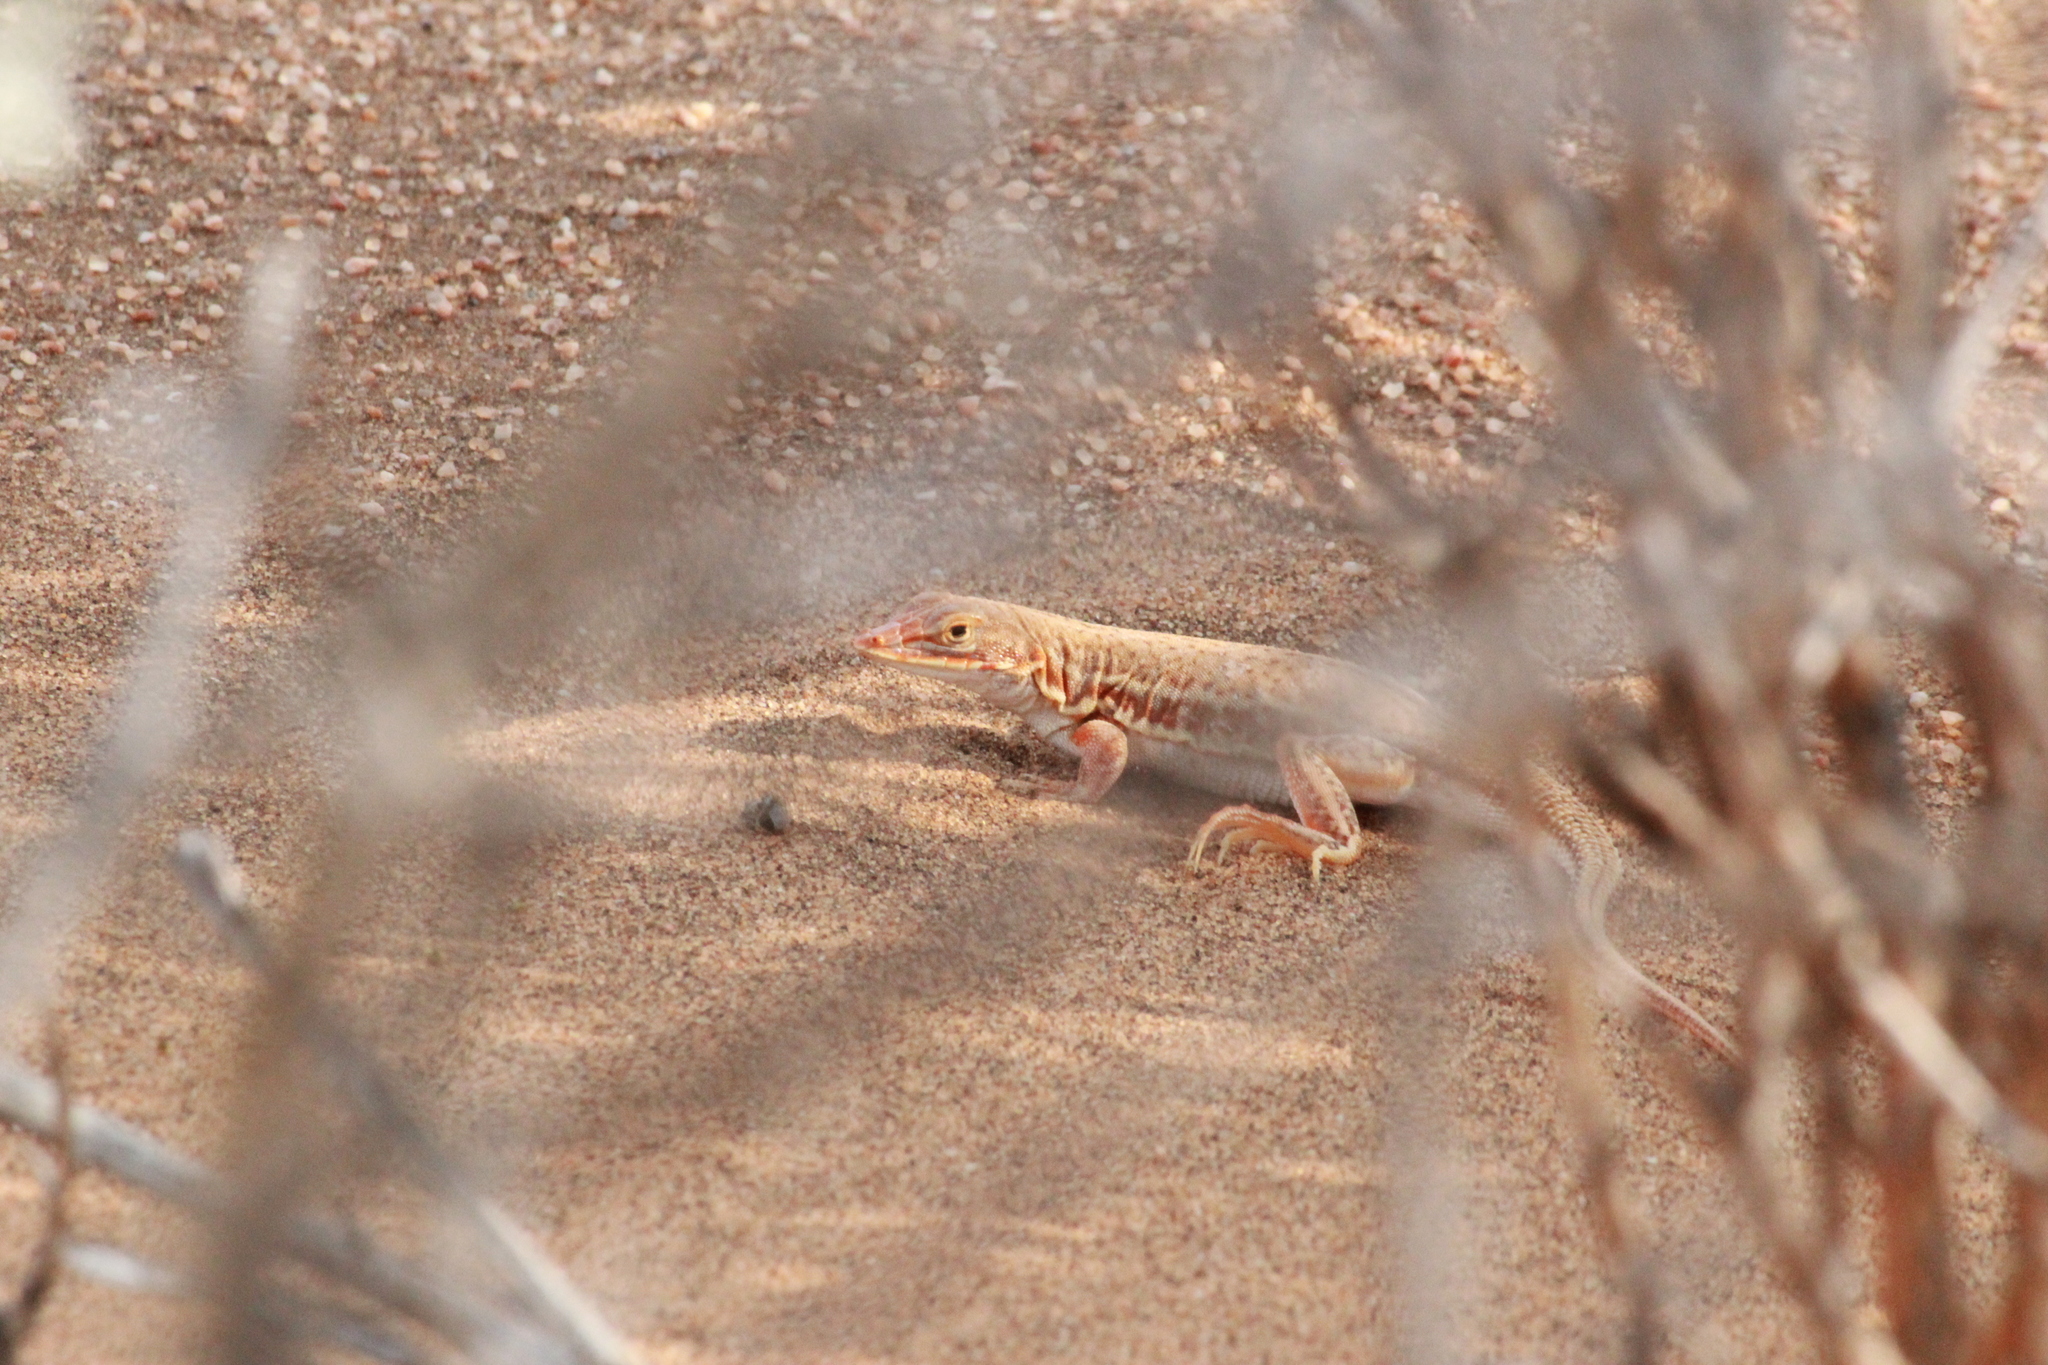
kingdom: Animalia
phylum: Chordata
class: Squamata
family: Lacertidae
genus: Meroles
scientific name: Meroles cuneirostris
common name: Wedge-snouted desert lizard
